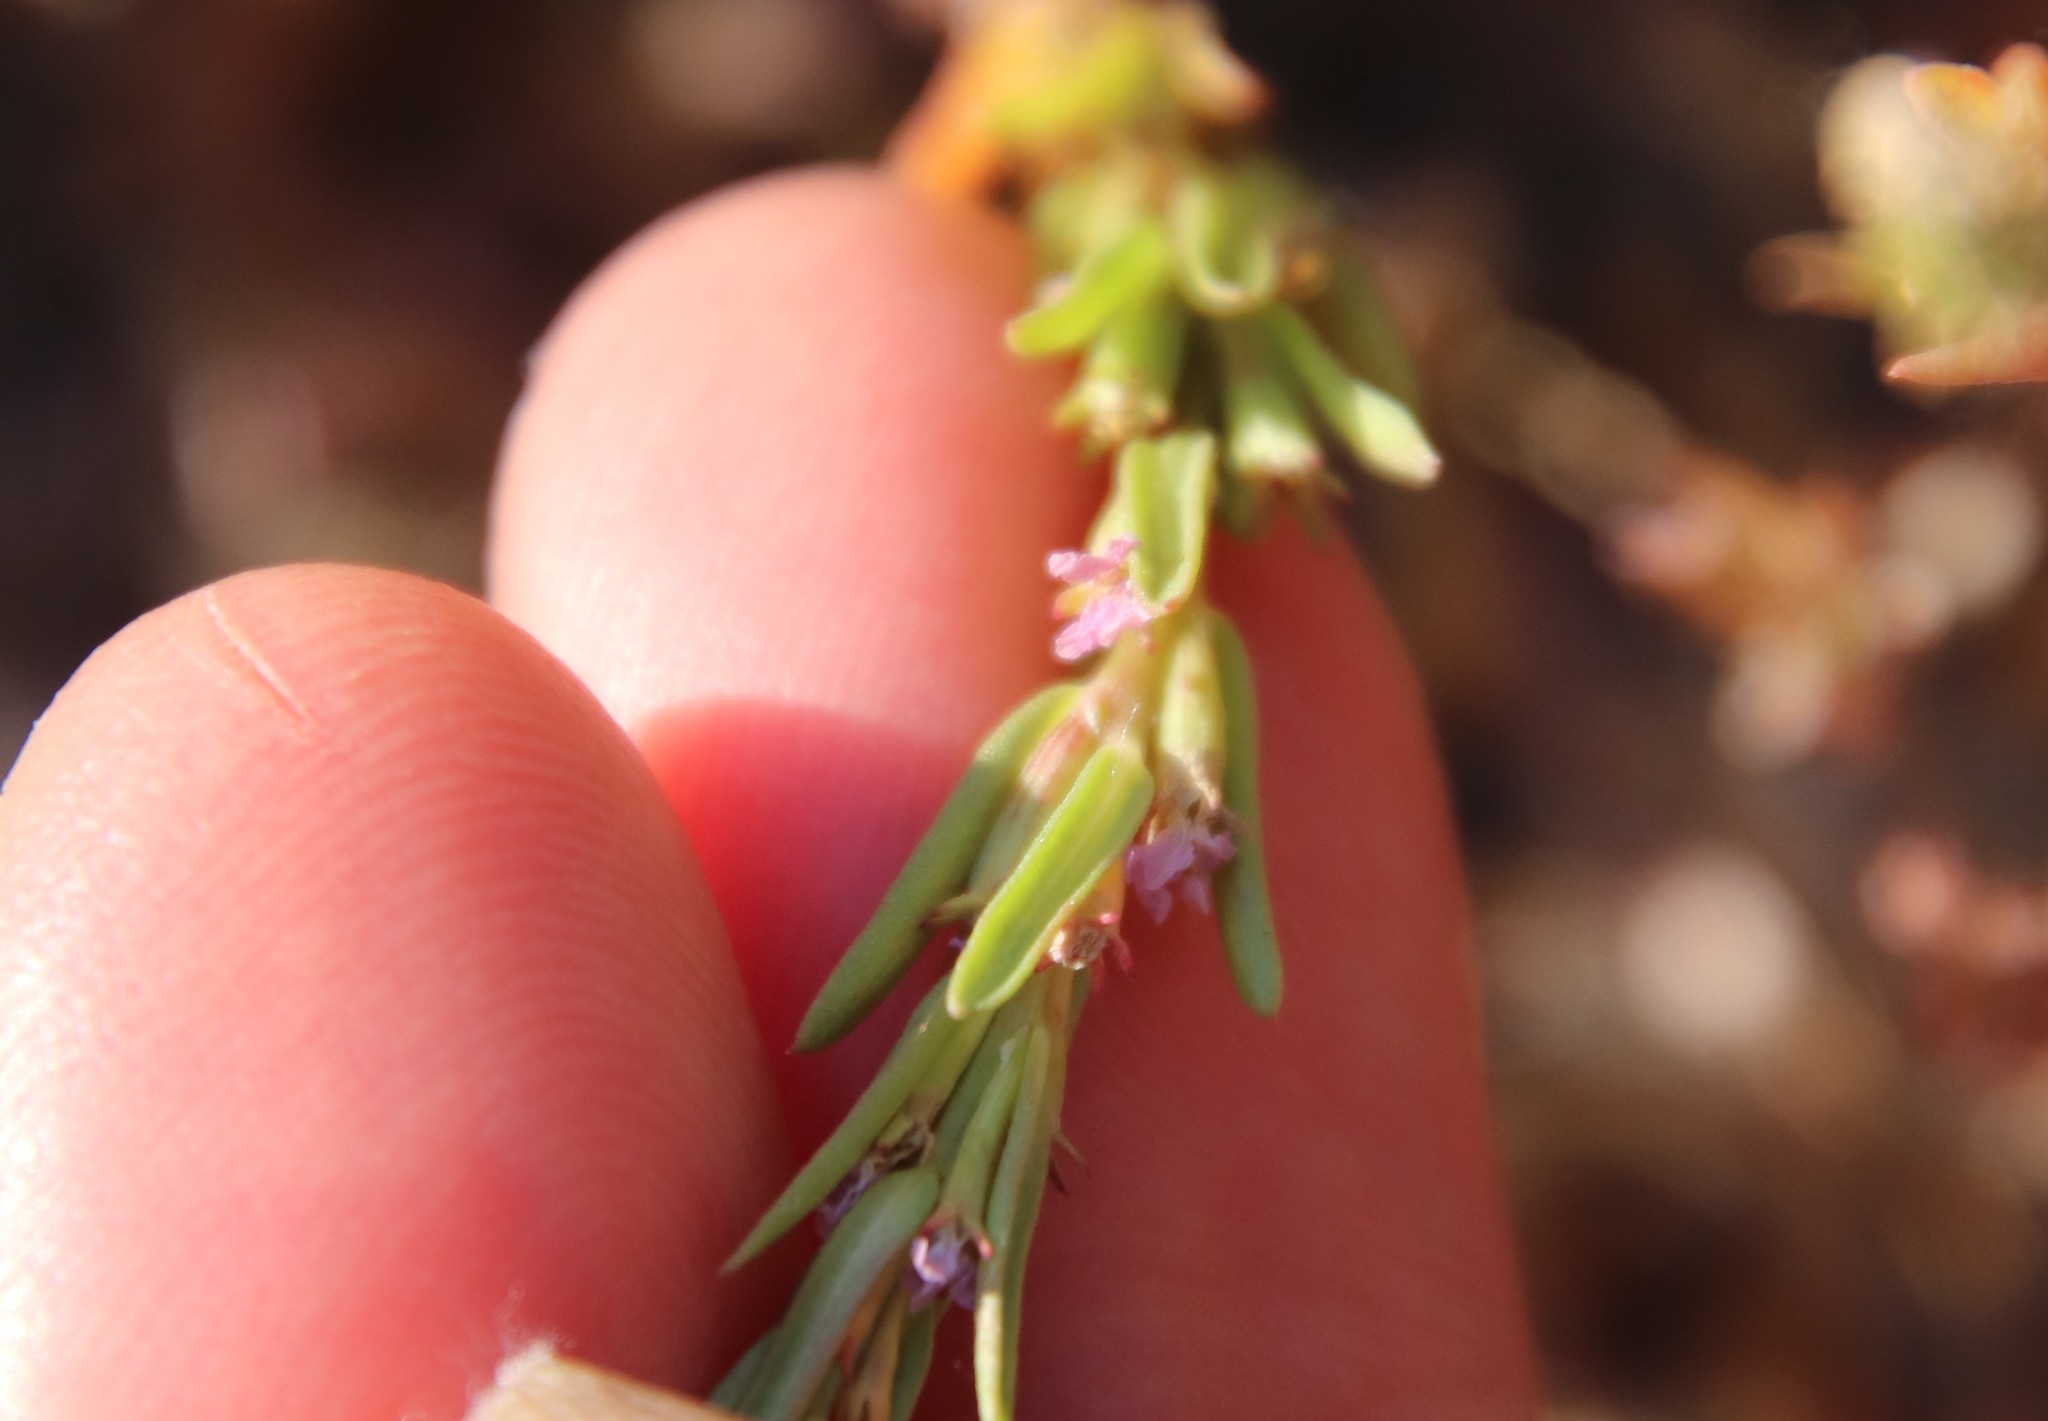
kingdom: Plantae
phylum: Tracheophyta
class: Magnoliopsida
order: Myrtales
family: Lythraceae
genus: Lythrum
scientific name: Lythrum hyssopifolia
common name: Grass-poly
